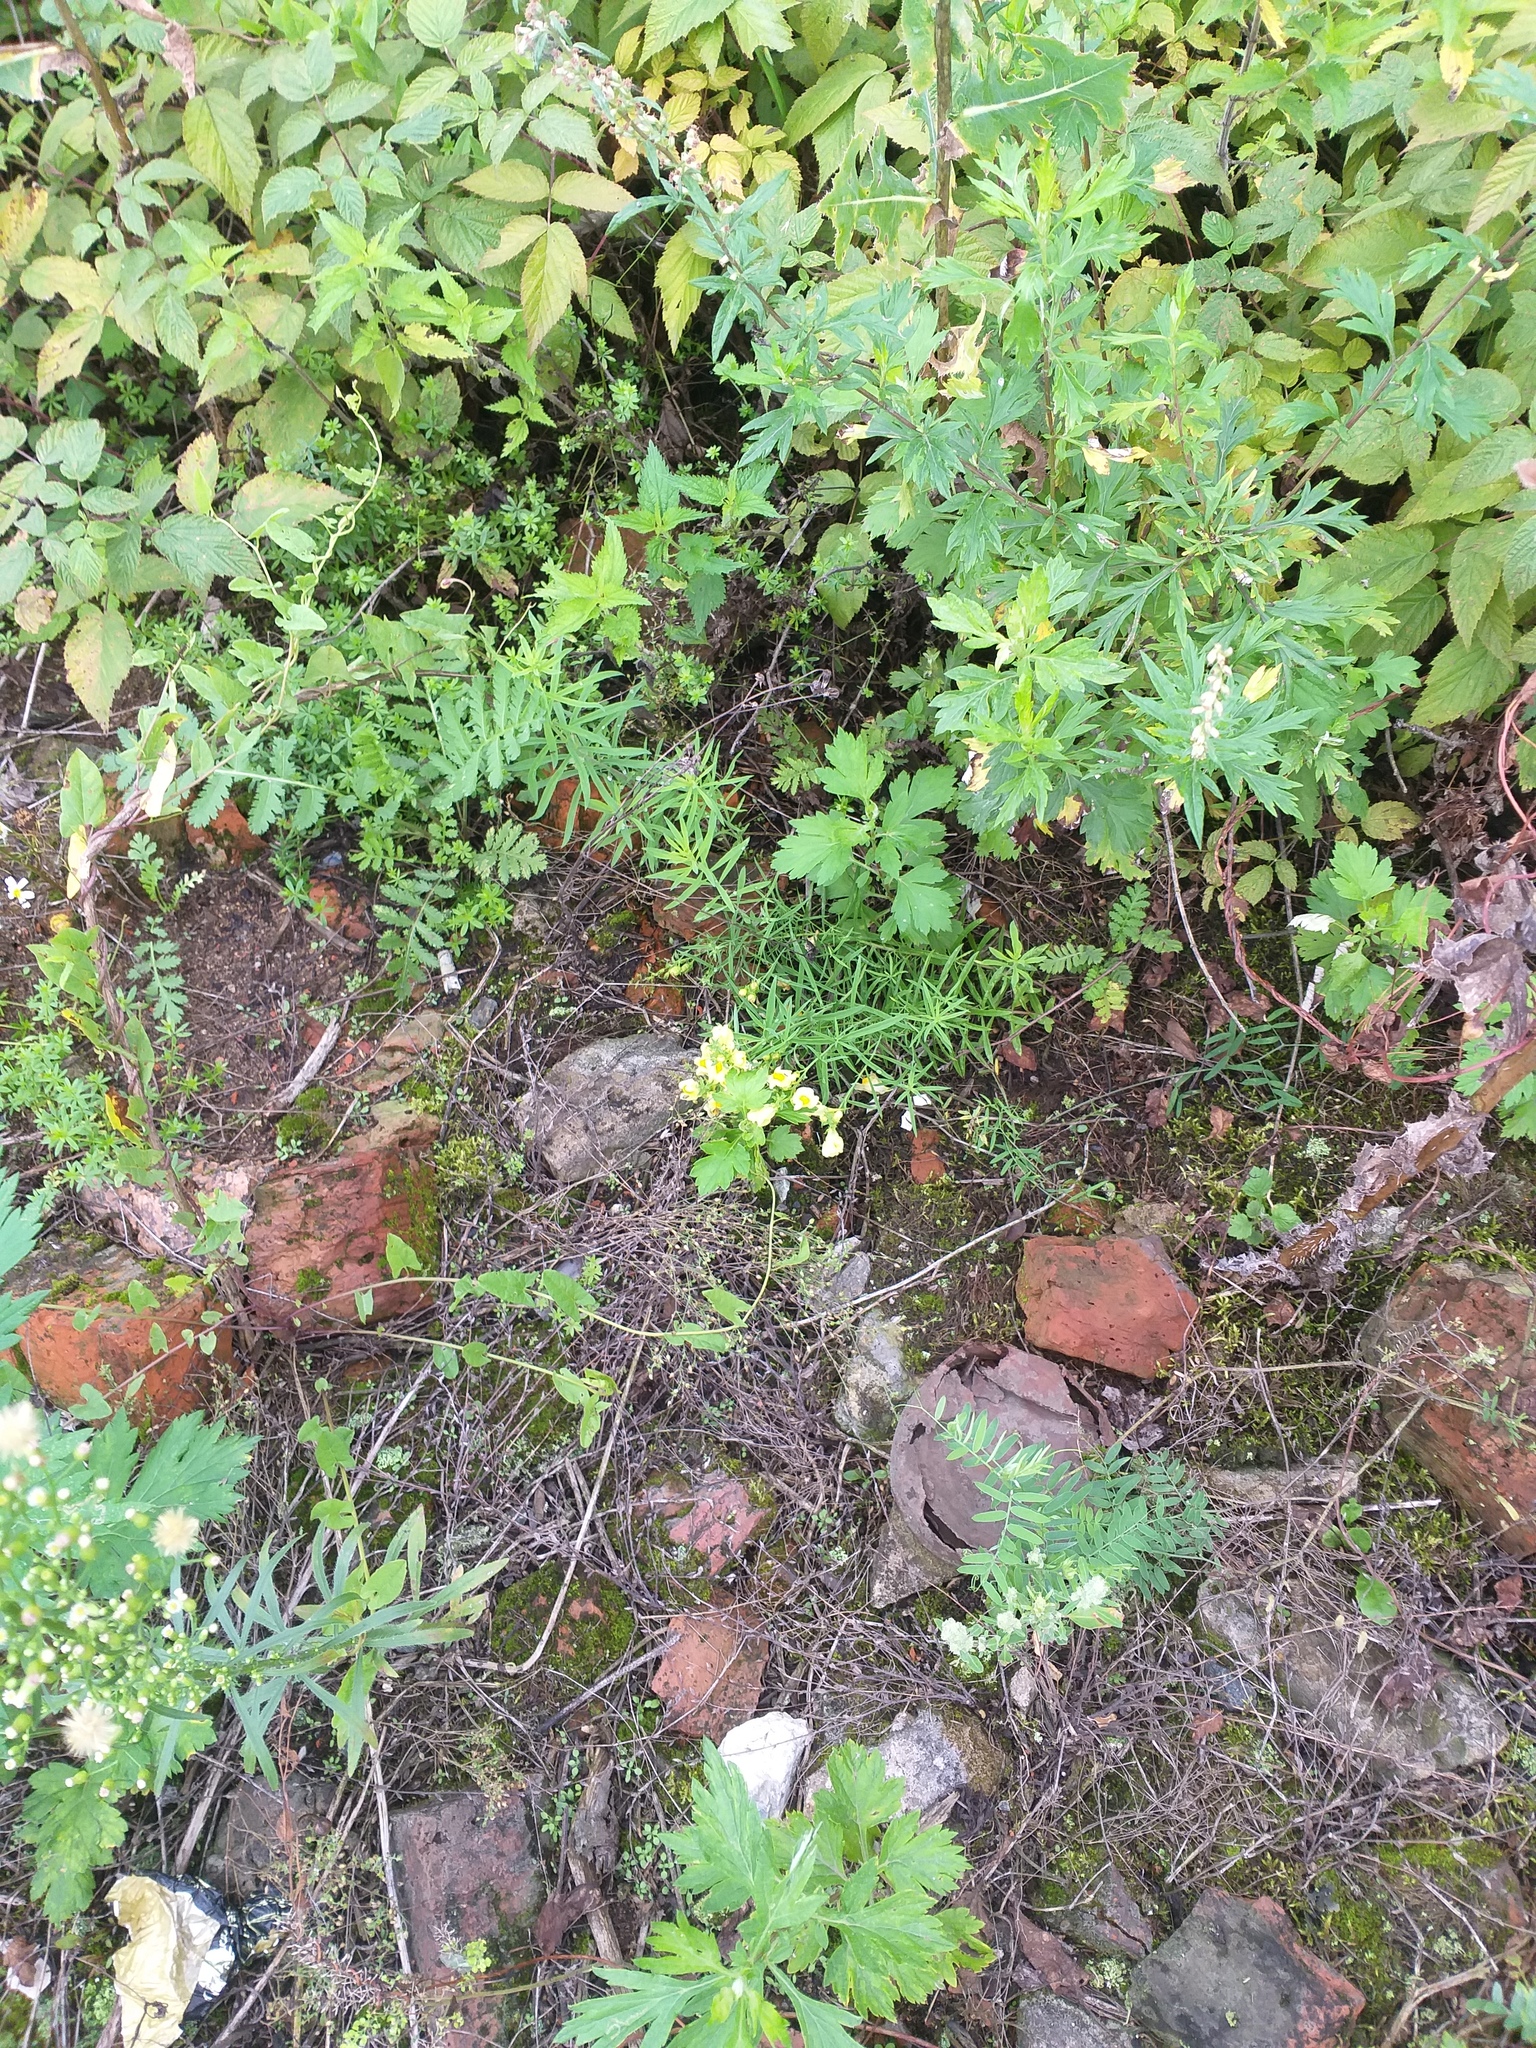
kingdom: Plantae
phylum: Tracheophyta
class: Magnoliopsida
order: Lamiales
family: Plantaginaceae
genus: Linaria
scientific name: Linaria vulgaris
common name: Butter and eggs
